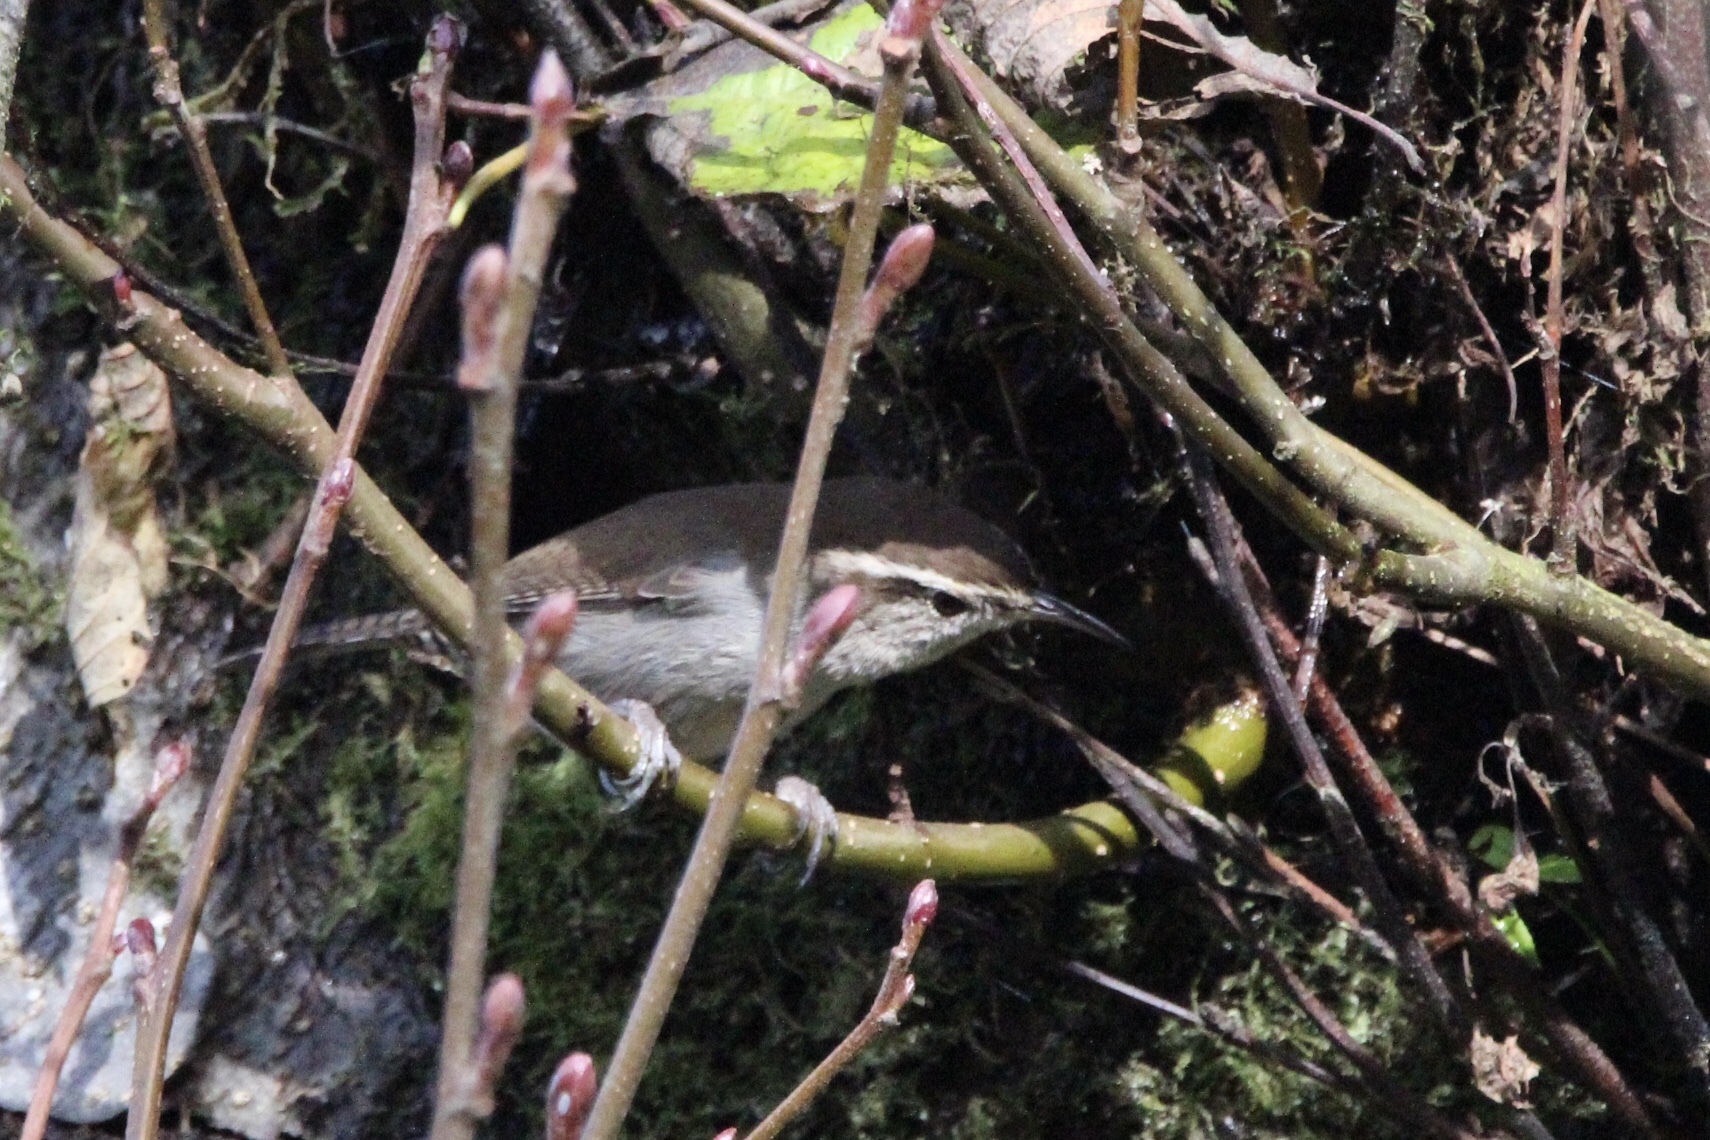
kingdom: Animalia
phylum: Chordata
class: Aves
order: Passeriformes
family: Troglodytidae
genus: Thryomanes
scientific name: Thryomanes bewickii
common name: Bewick's wren
